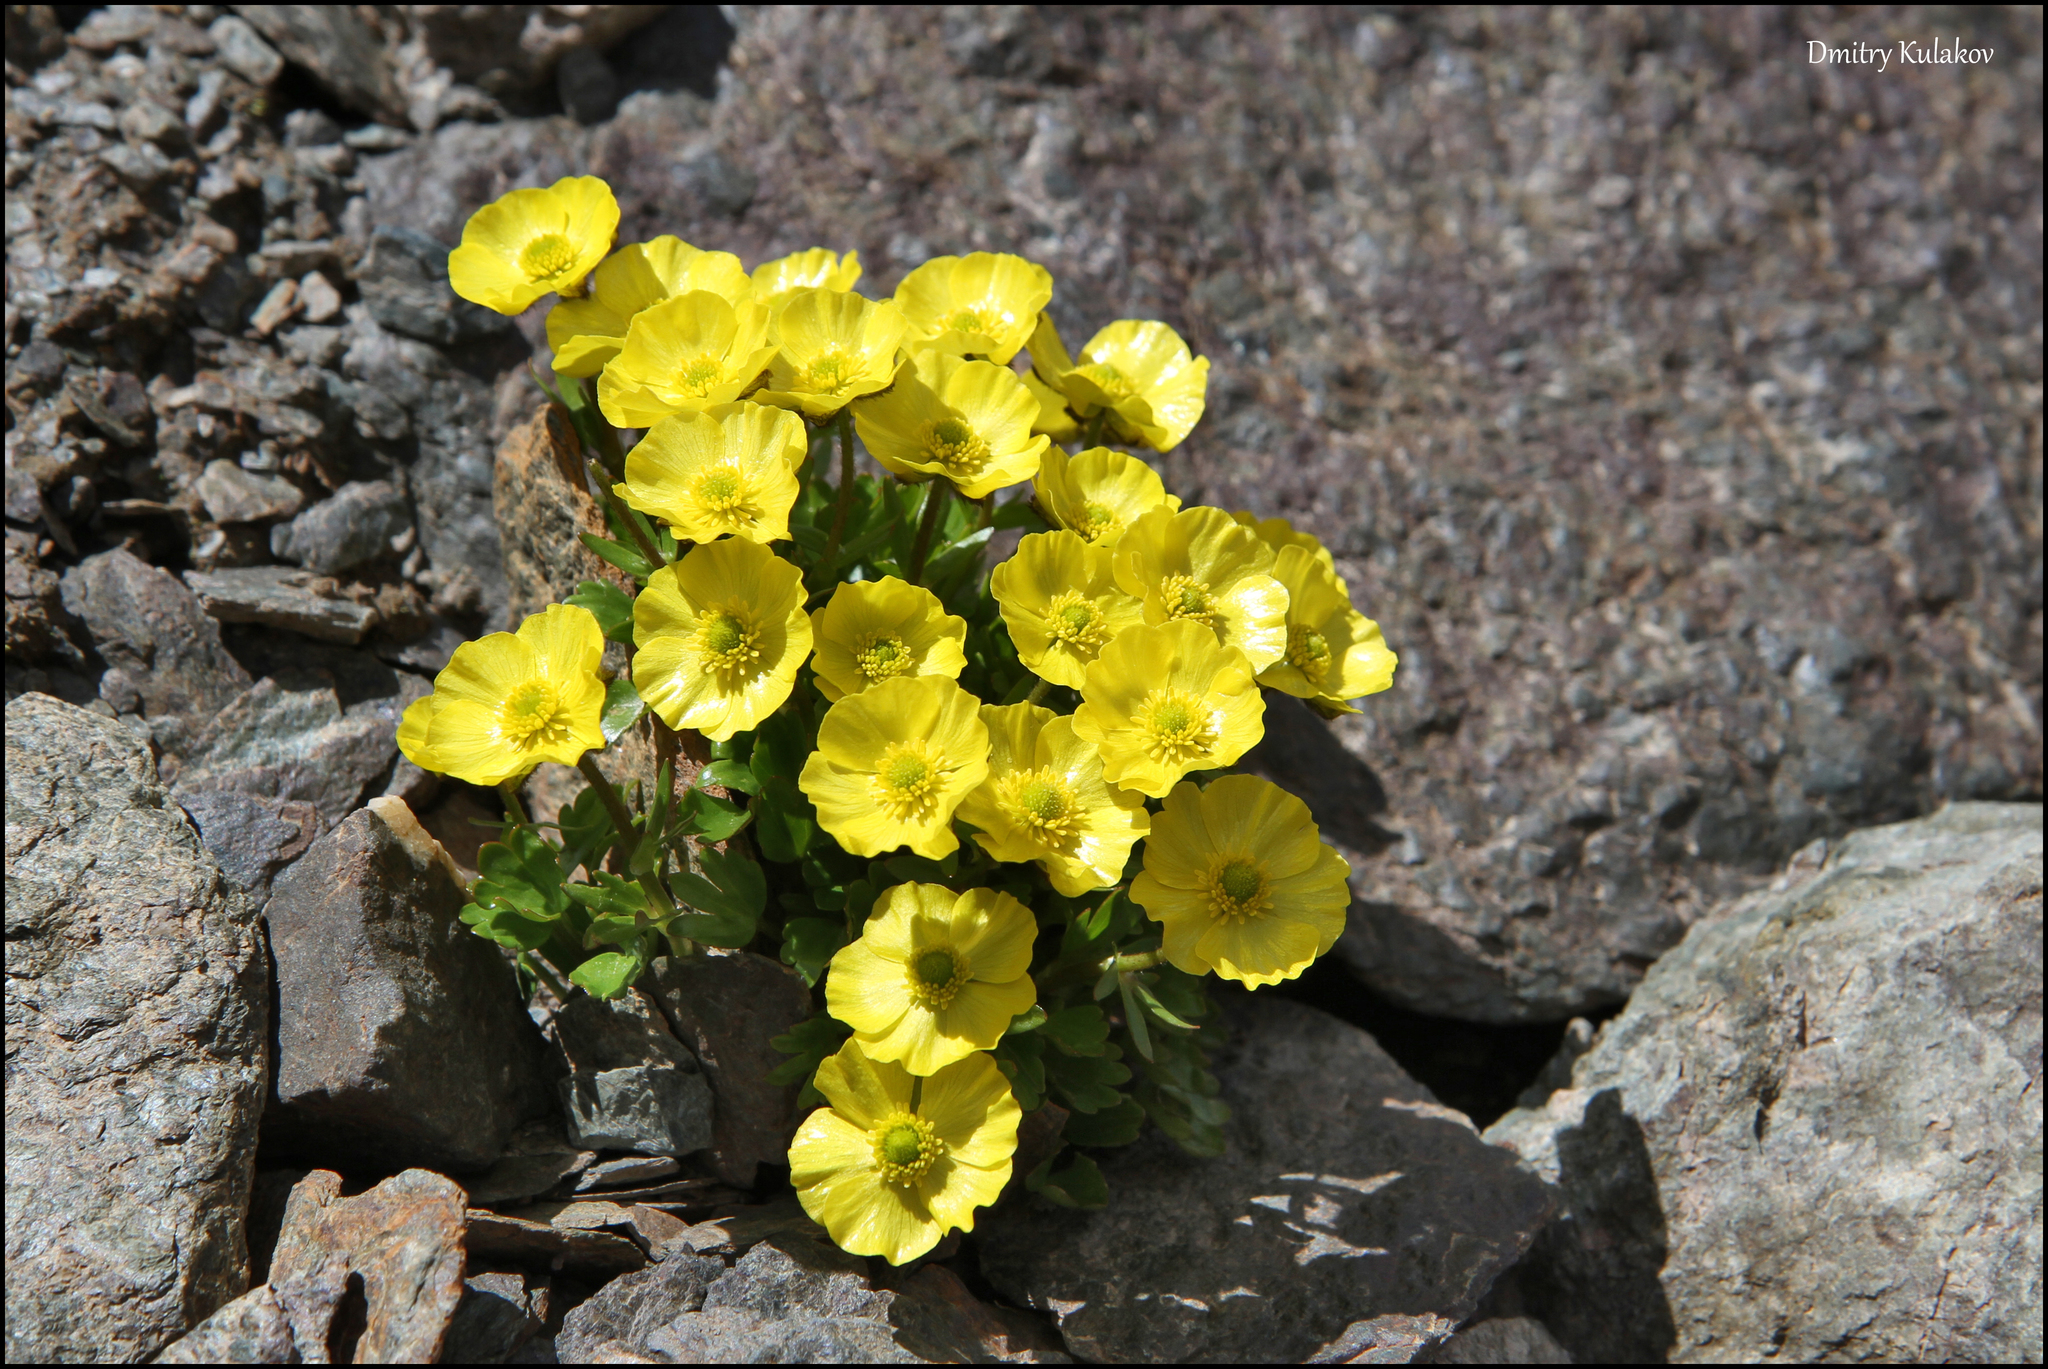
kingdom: Plantae
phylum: Tracheophyta
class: Magnoliopsida
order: Ranunculales
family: Ranunculaceae
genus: Ranunculus
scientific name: Ranunculus transiliensis
